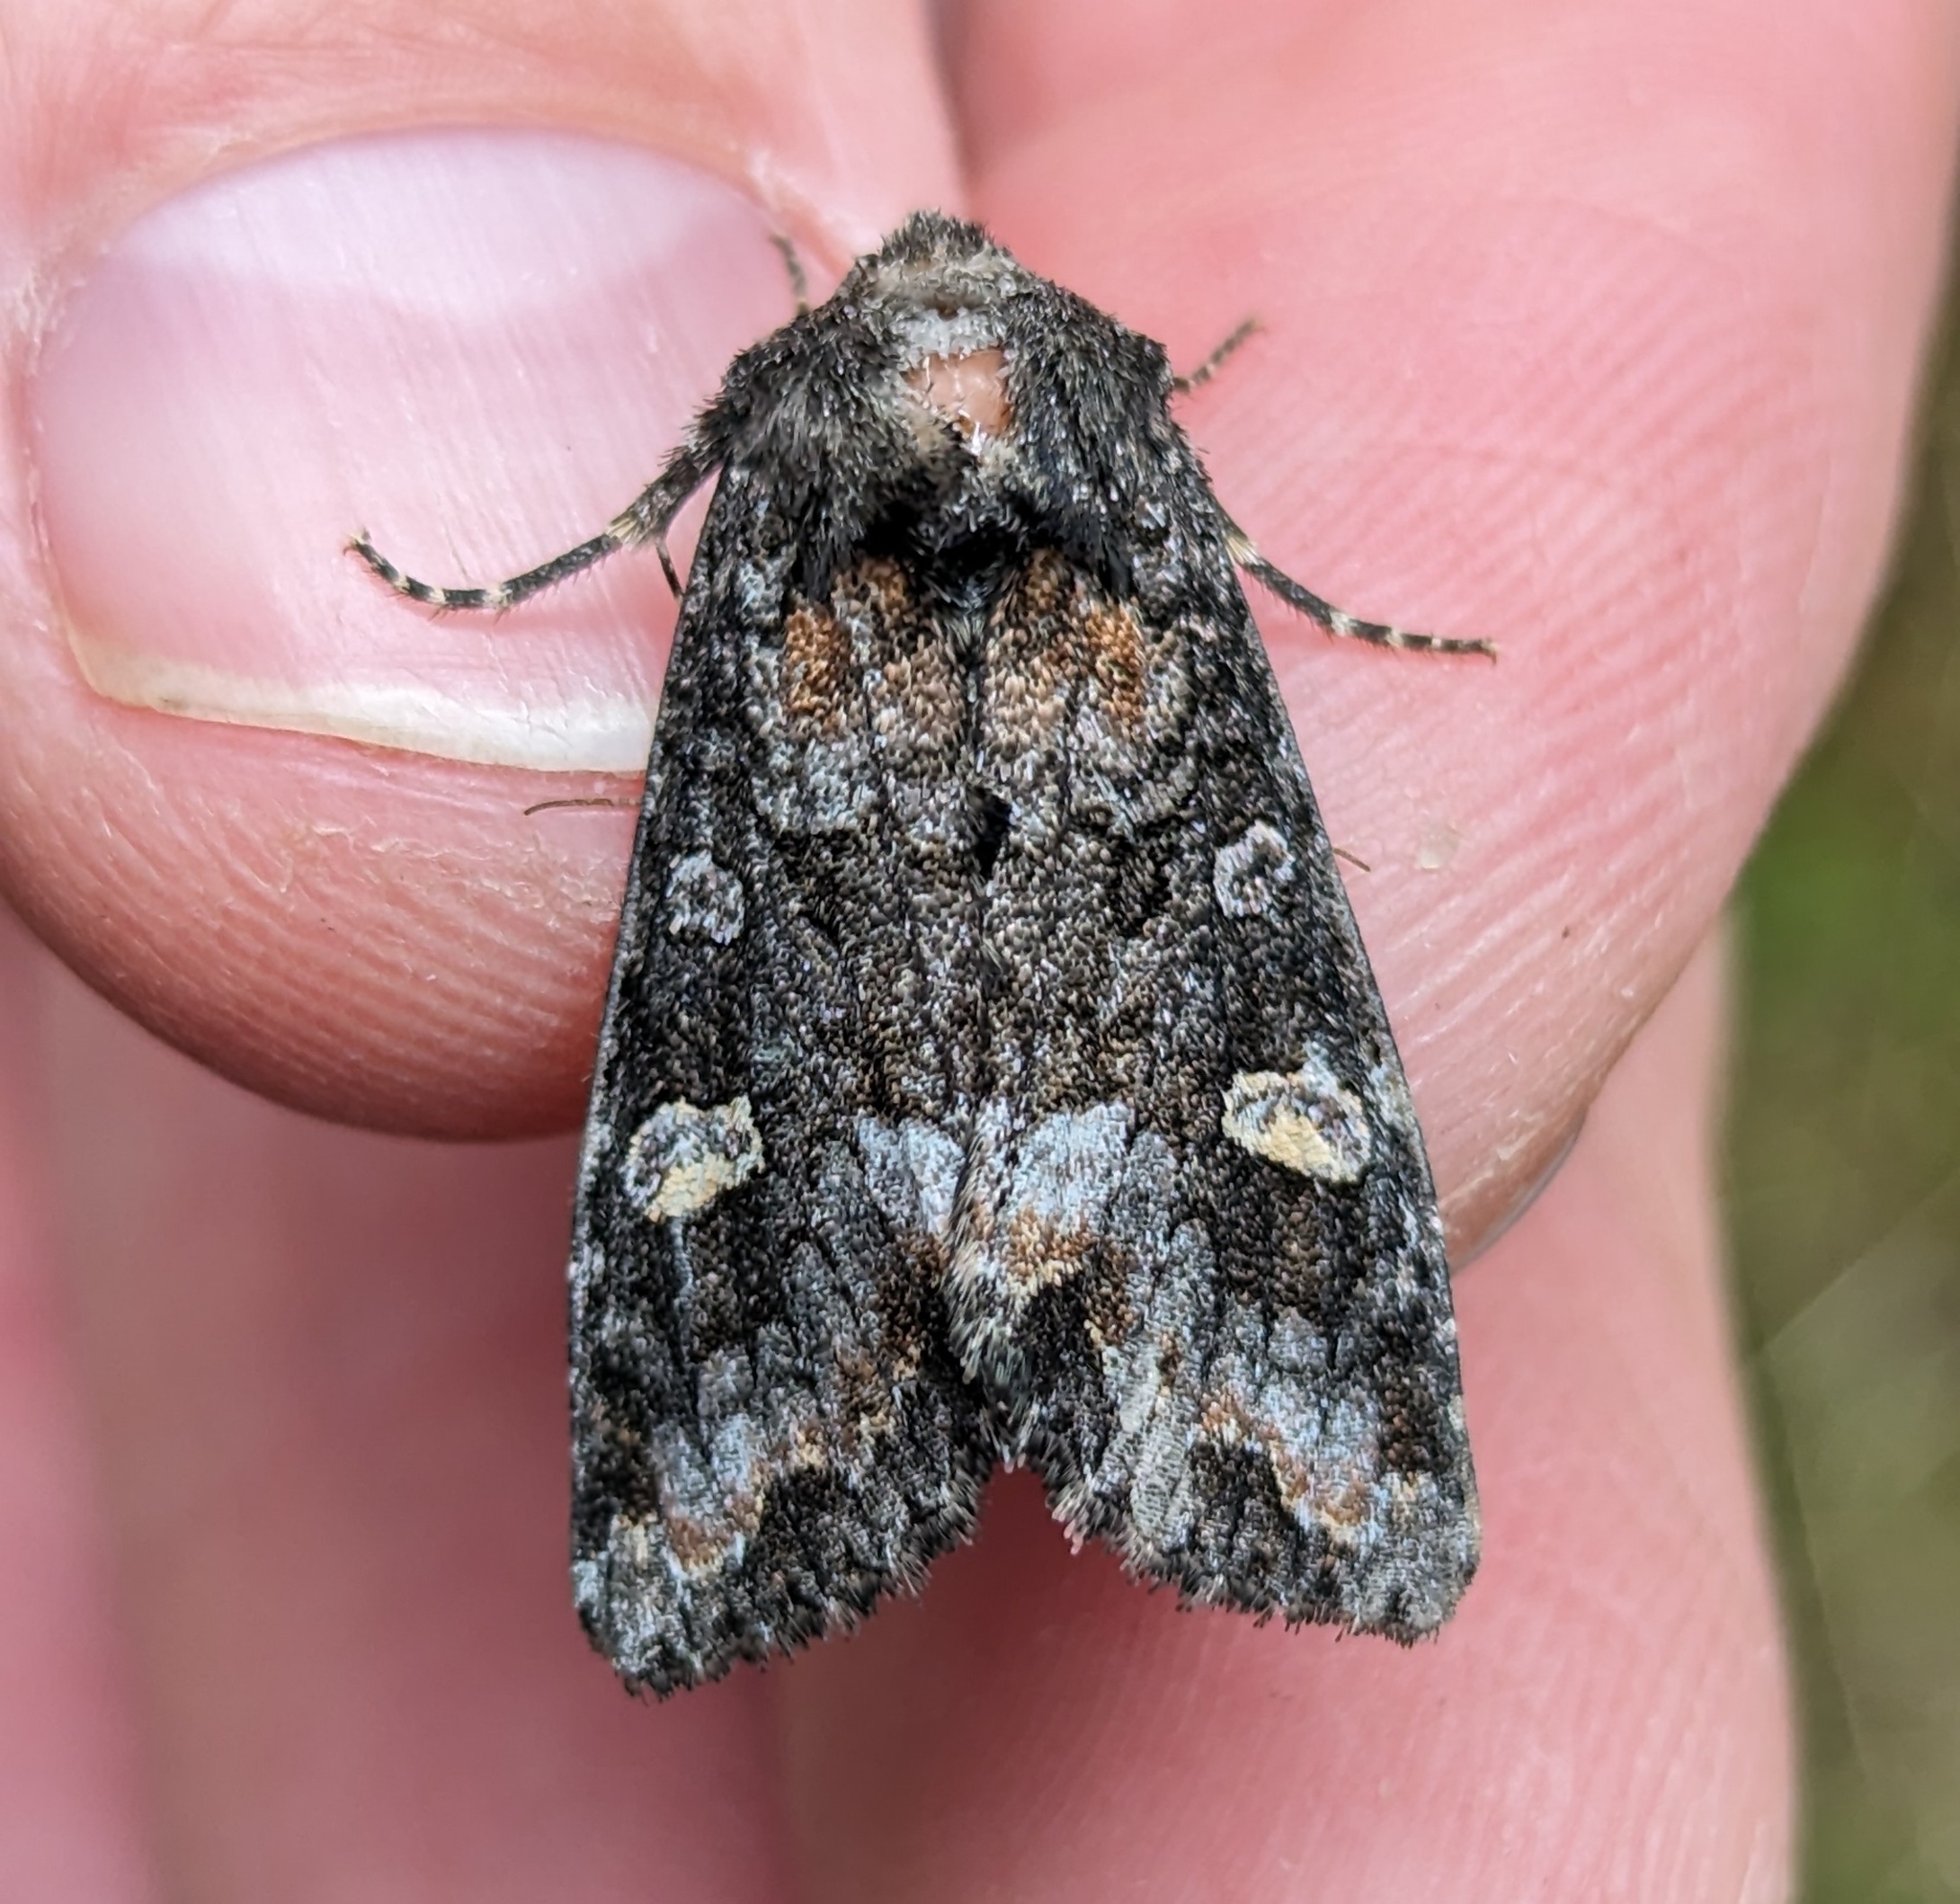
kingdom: Animalia
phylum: Arthropoda
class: Insecta
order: Lepidoptera
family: Noctuidae
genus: Spiramater
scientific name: Spiramater lutra
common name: Otter spiramater moth
